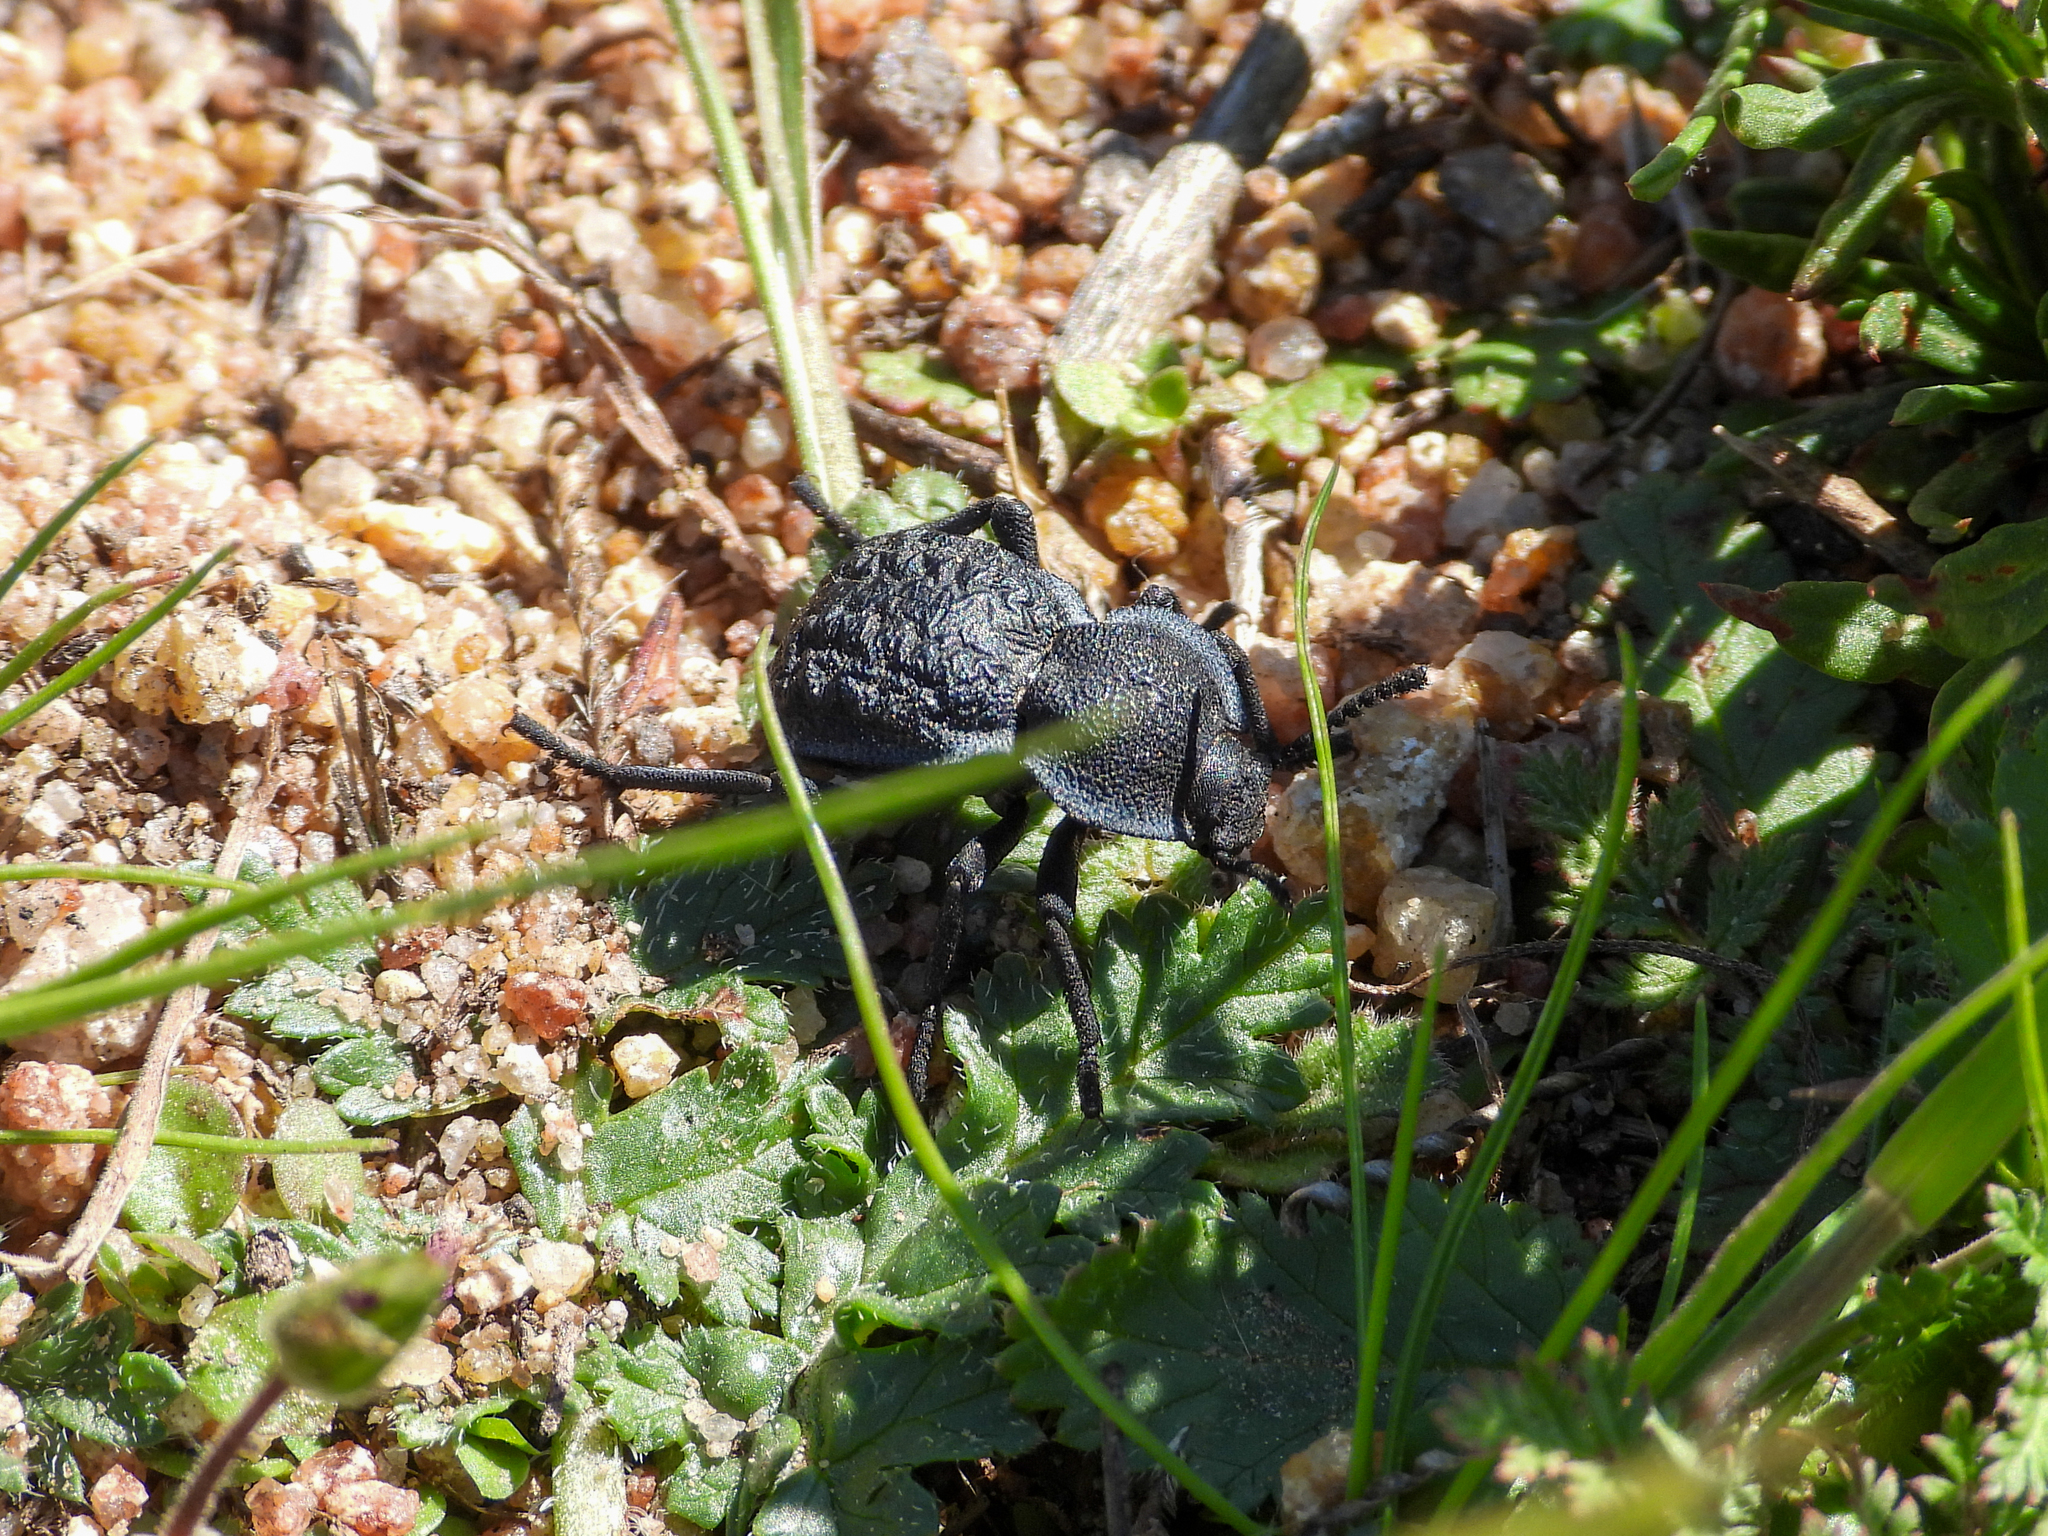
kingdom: Animalia
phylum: Arthropoda
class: Insecta
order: Coleoptera
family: Tenebrionidae
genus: Microschatia
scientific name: Microschatia inaequalis
